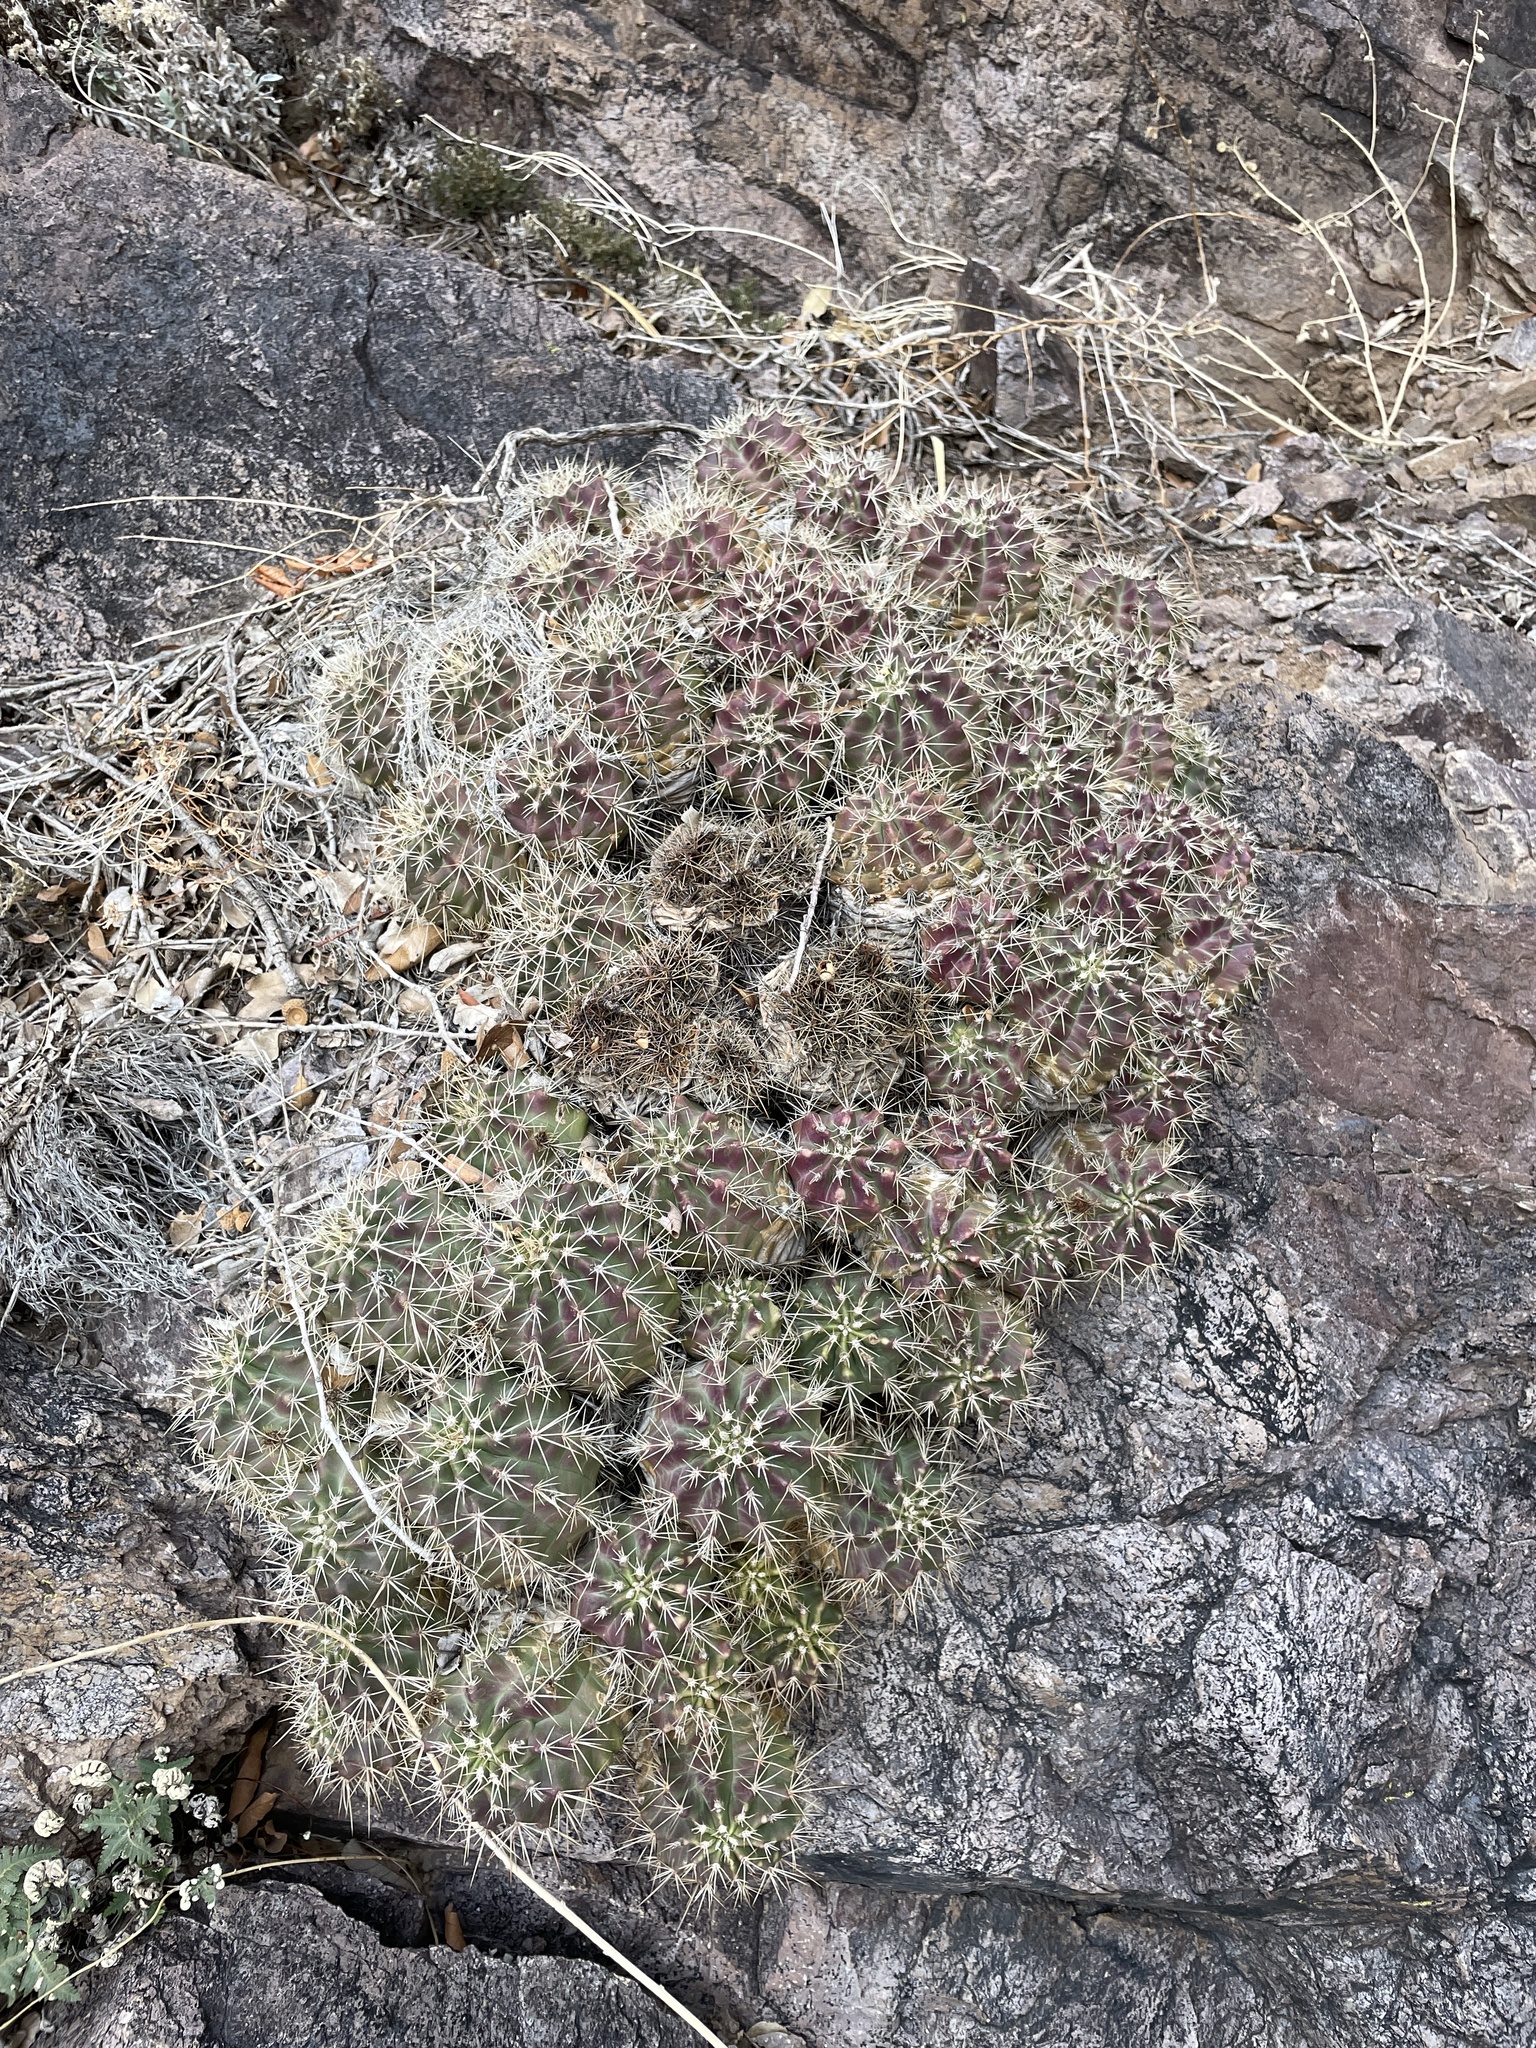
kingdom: Plantae
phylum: Tracheophyta
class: Magnoliopsida
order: Caryophyllales
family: Cactaceae
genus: Echinocereus
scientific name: Echinocereus coccineus
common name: Scarlet hedgehog cactus
